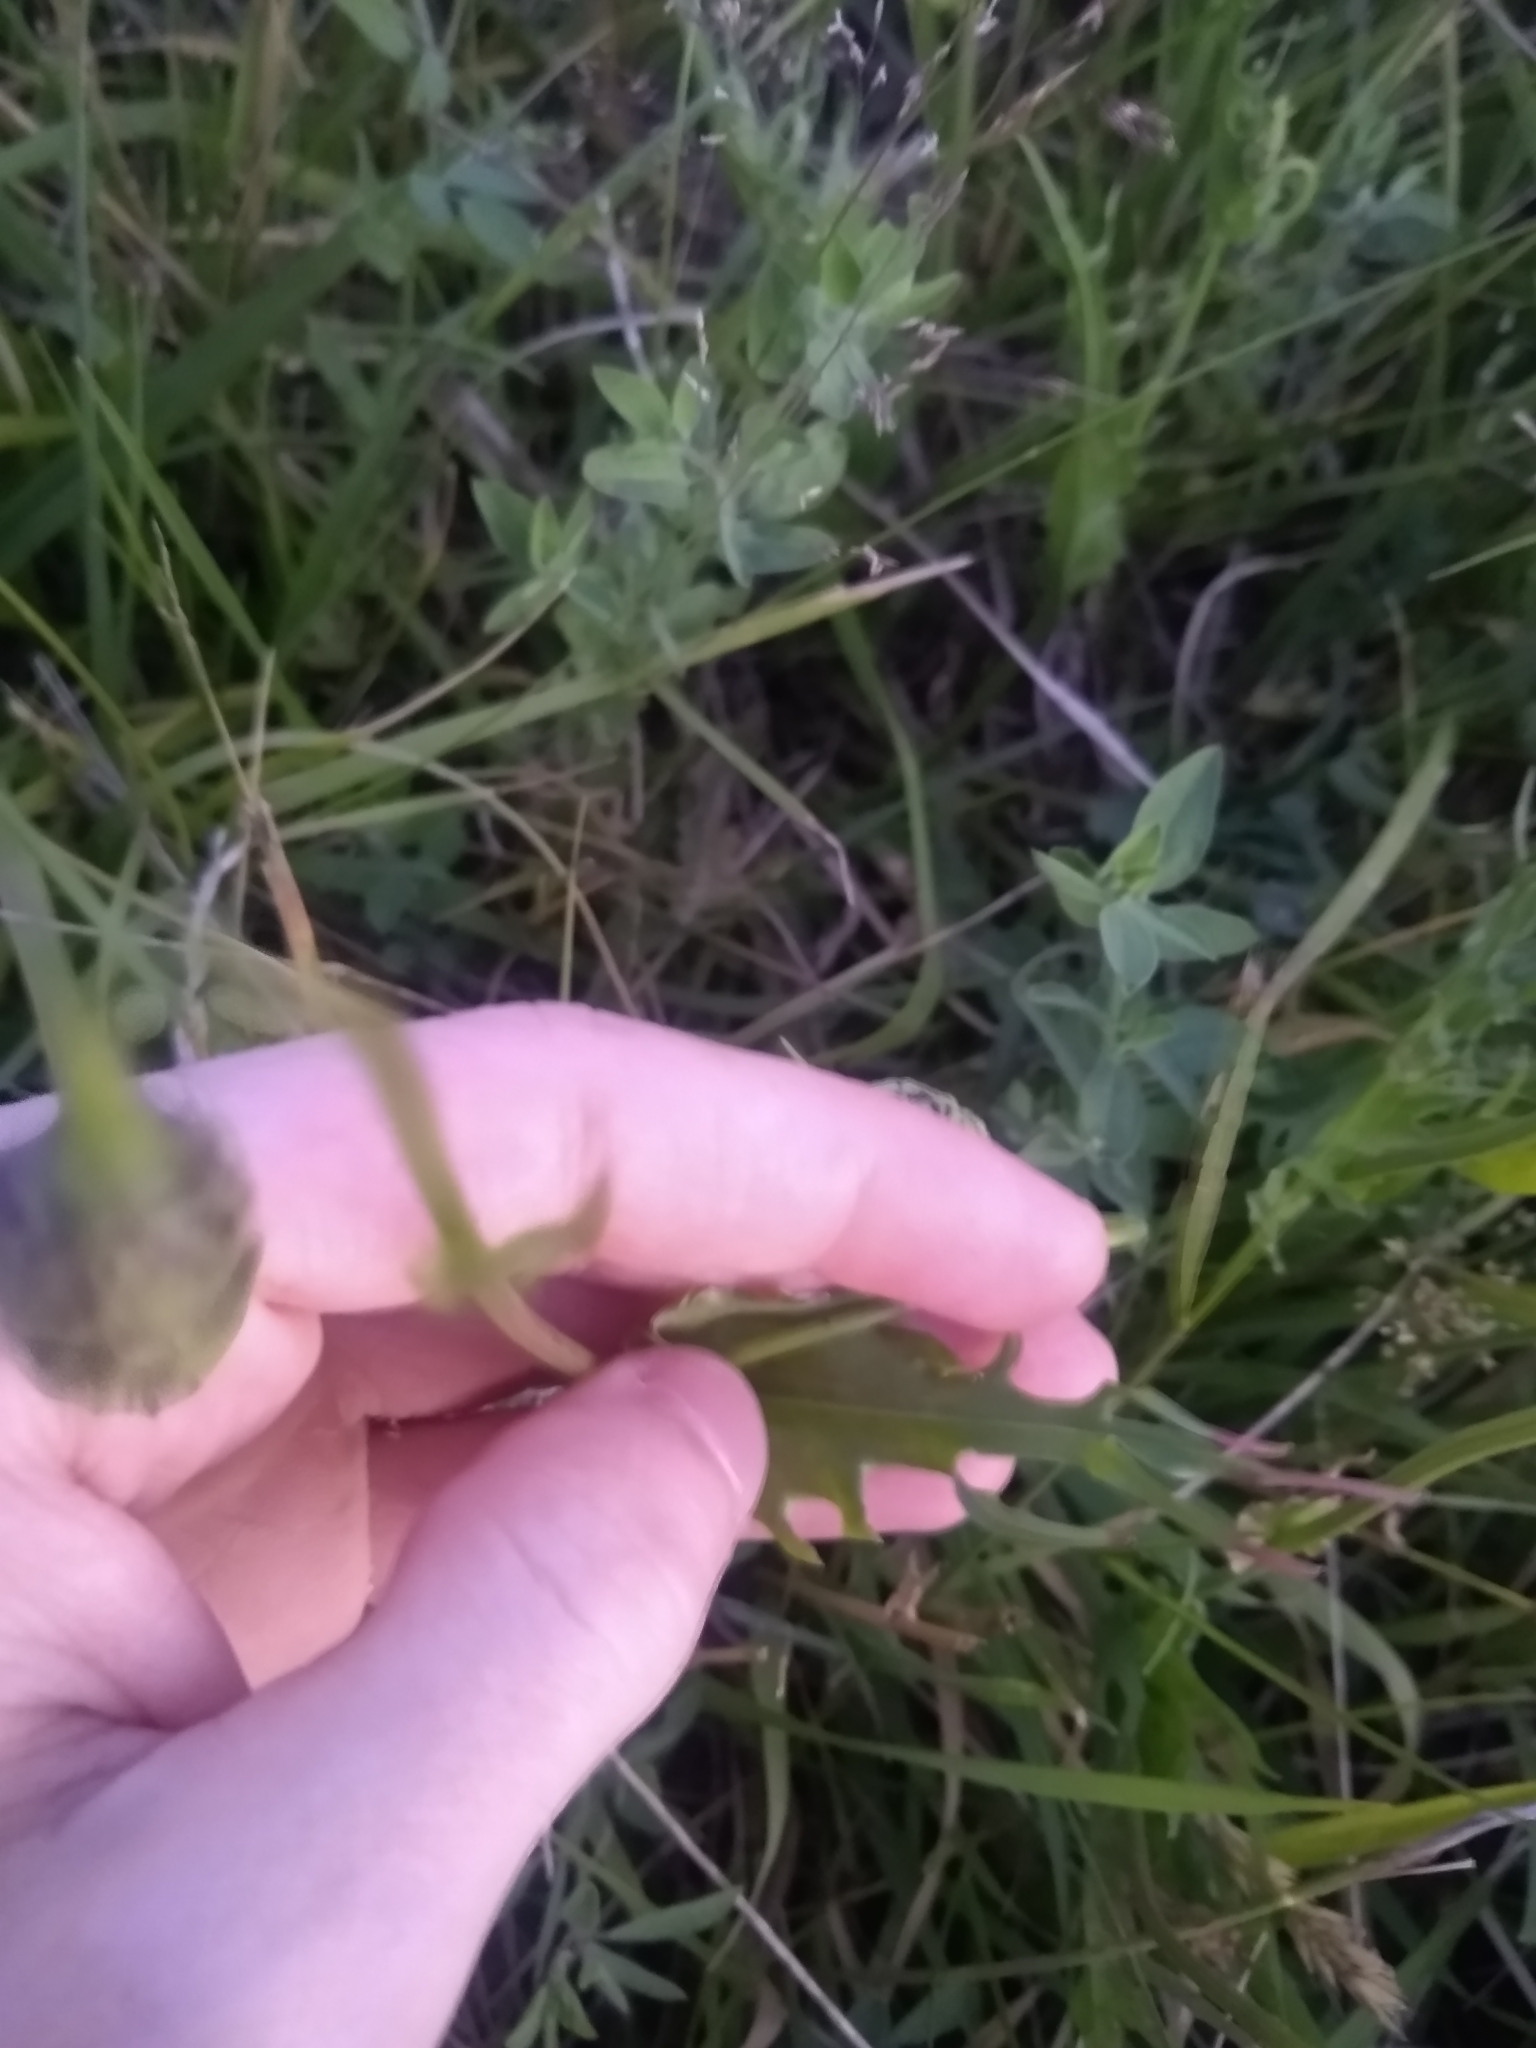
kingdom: Plantae
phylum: Tracheophyta
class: Magnoliopsida
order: Asterales
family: Asteraceae
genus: Microseris
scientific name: Microseris laciniata
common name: Cut-leaf microseris
